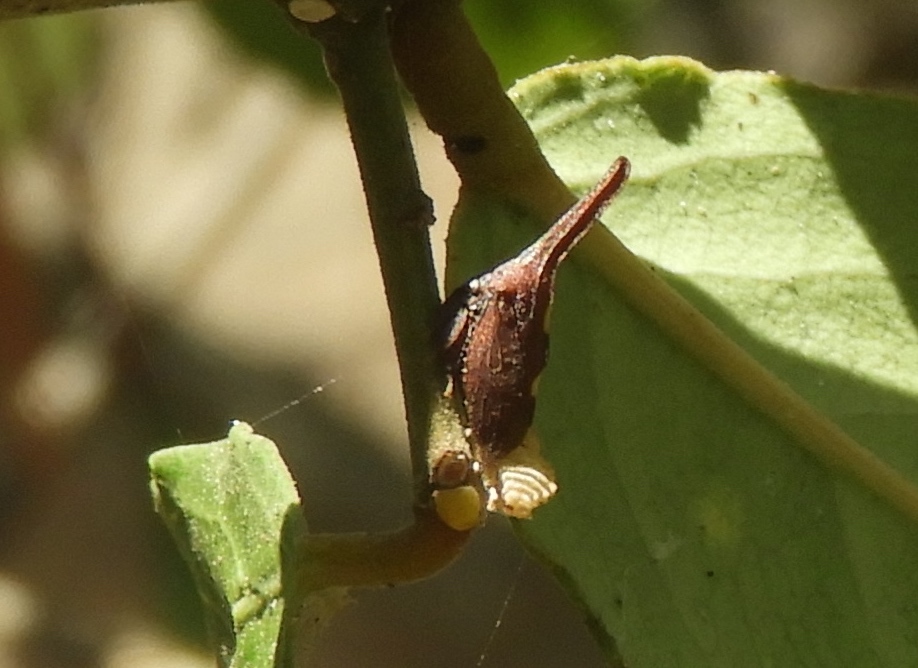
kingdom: Animalia
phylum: Arthropoda
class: Insecta
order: Hemiptera
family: Membracidae
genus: Enchenopa
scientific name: Enchenopa
